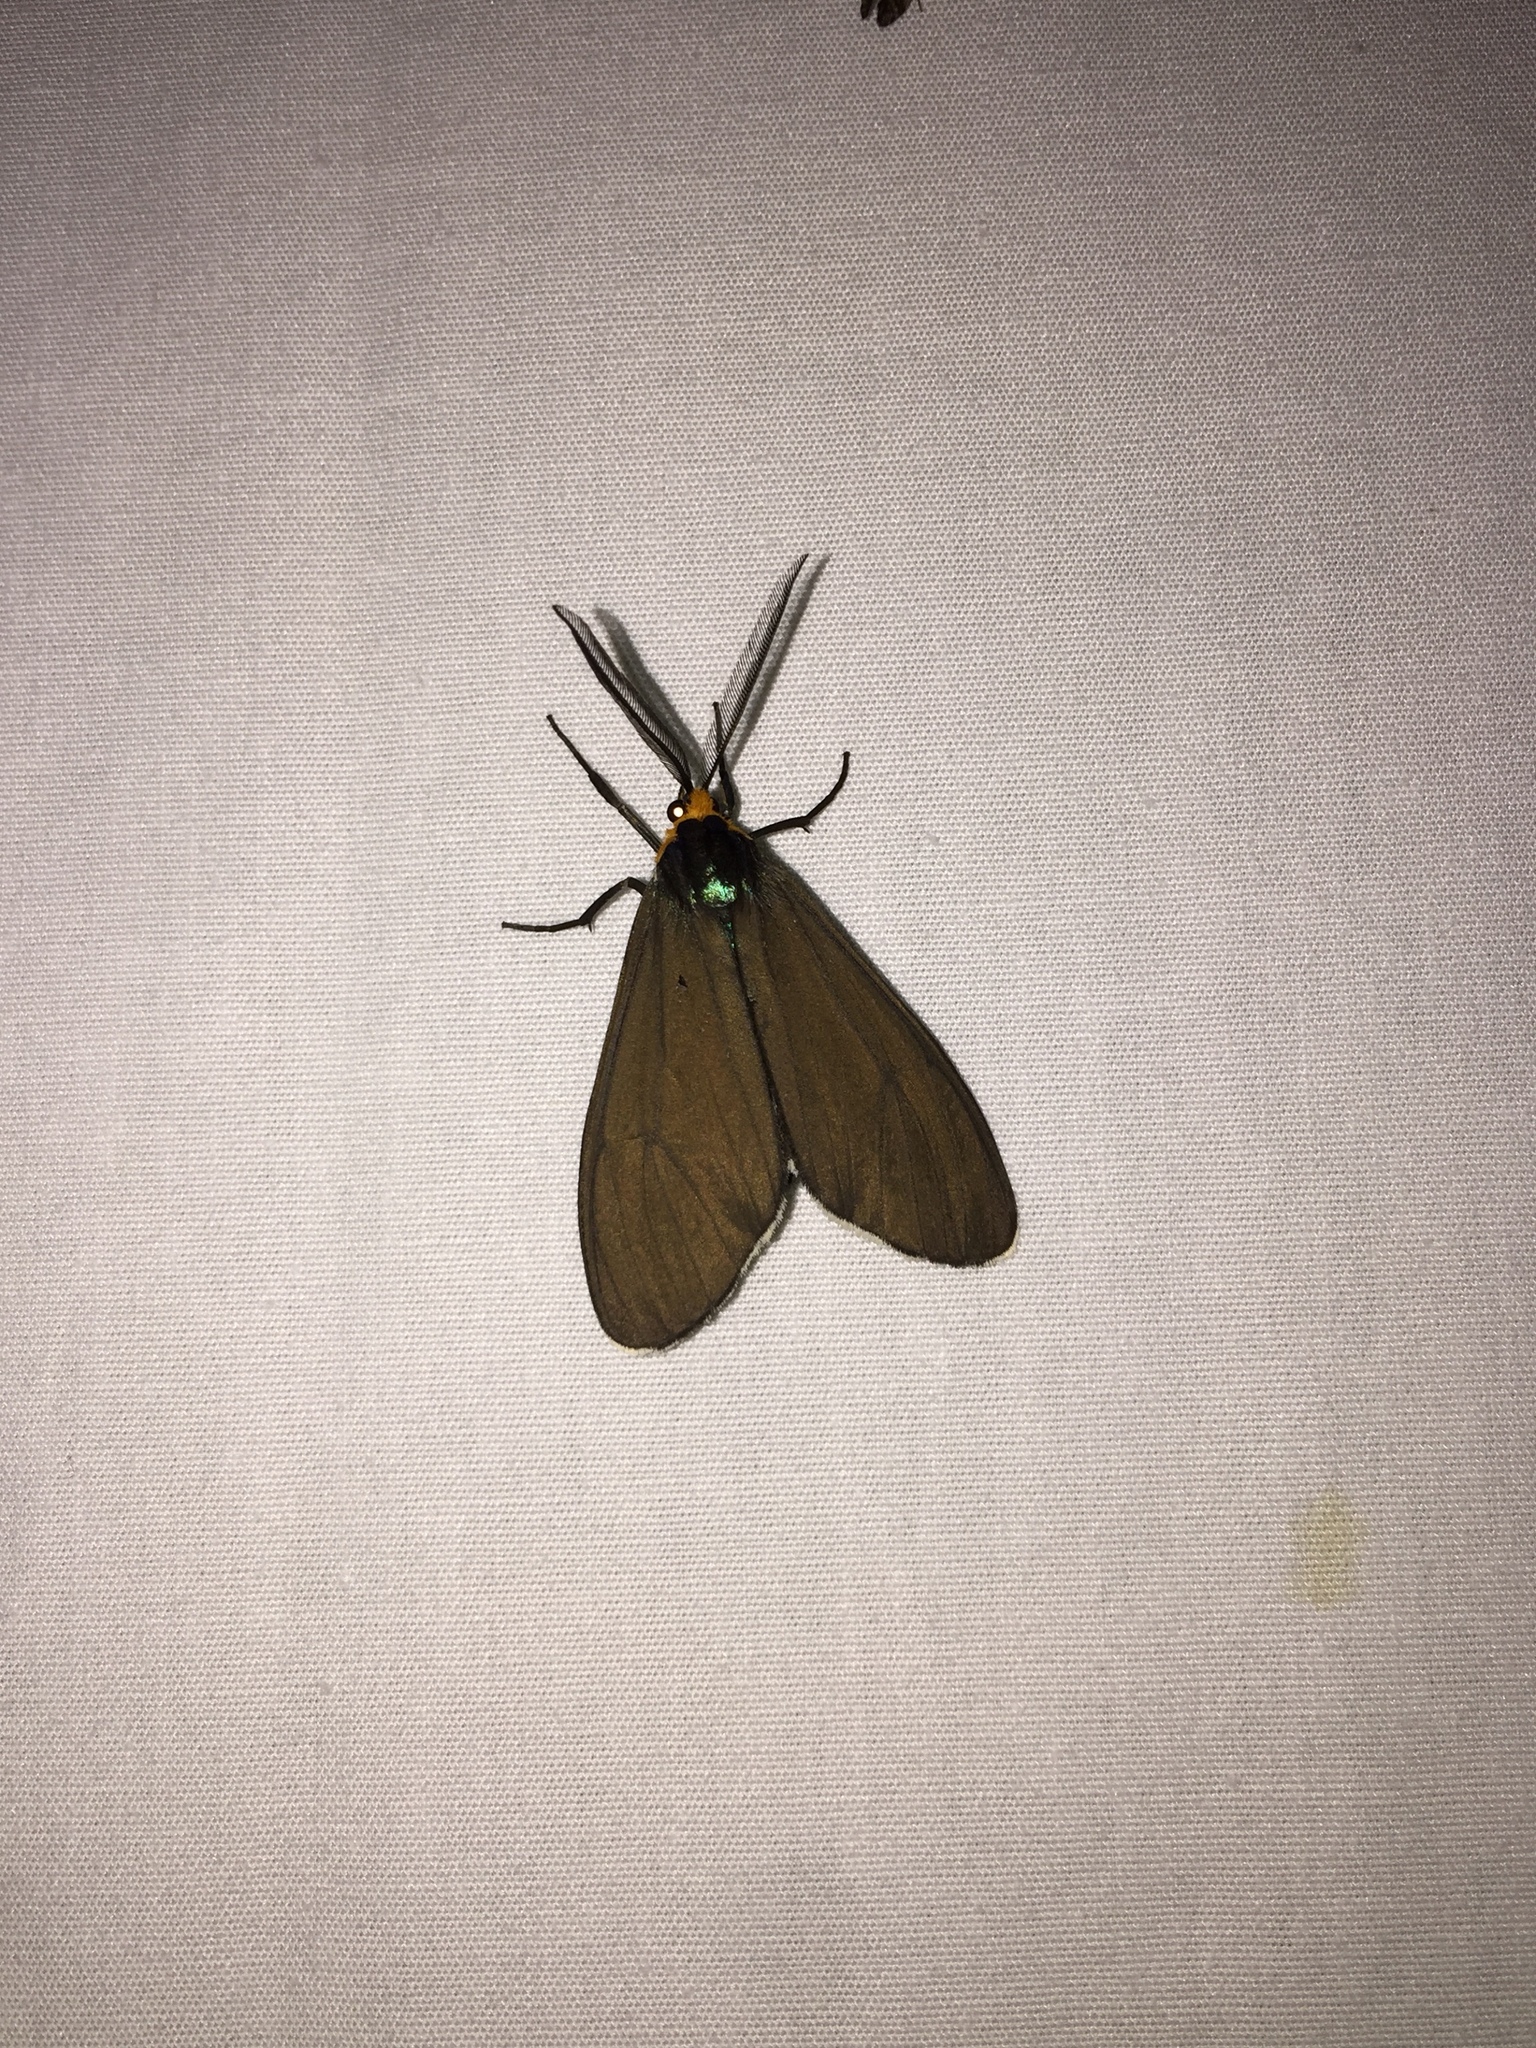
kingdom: Animalia
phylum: Arthropoda
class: Insecta
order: Lepidoptera
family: Erebidae
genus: Ctenucha
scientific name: Ctenucha virginica
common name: Virginia ctenucha moth
